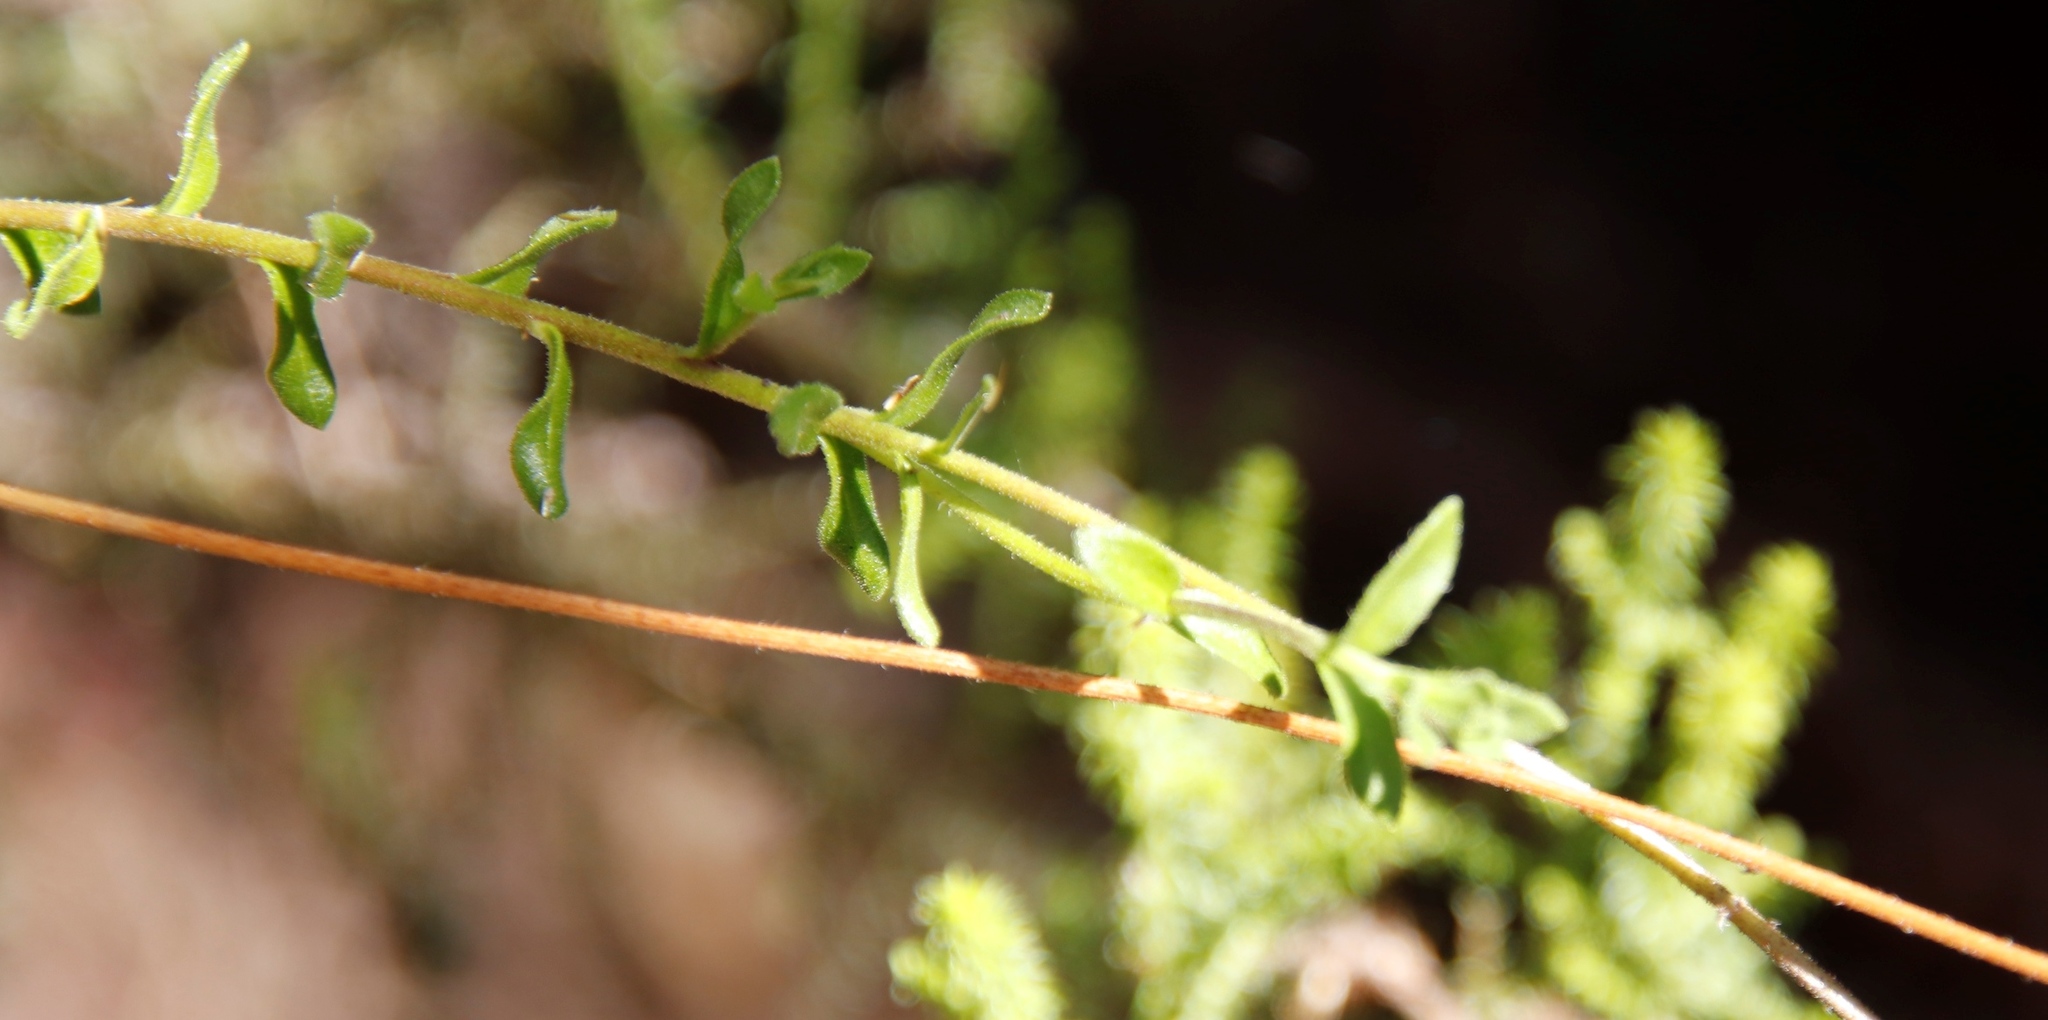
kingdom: Plantae
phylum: Tracheophyta
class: Magnoliopsida
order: Asterales
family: Asteraceae
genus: Felicia
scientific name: Felicia aethiopica
